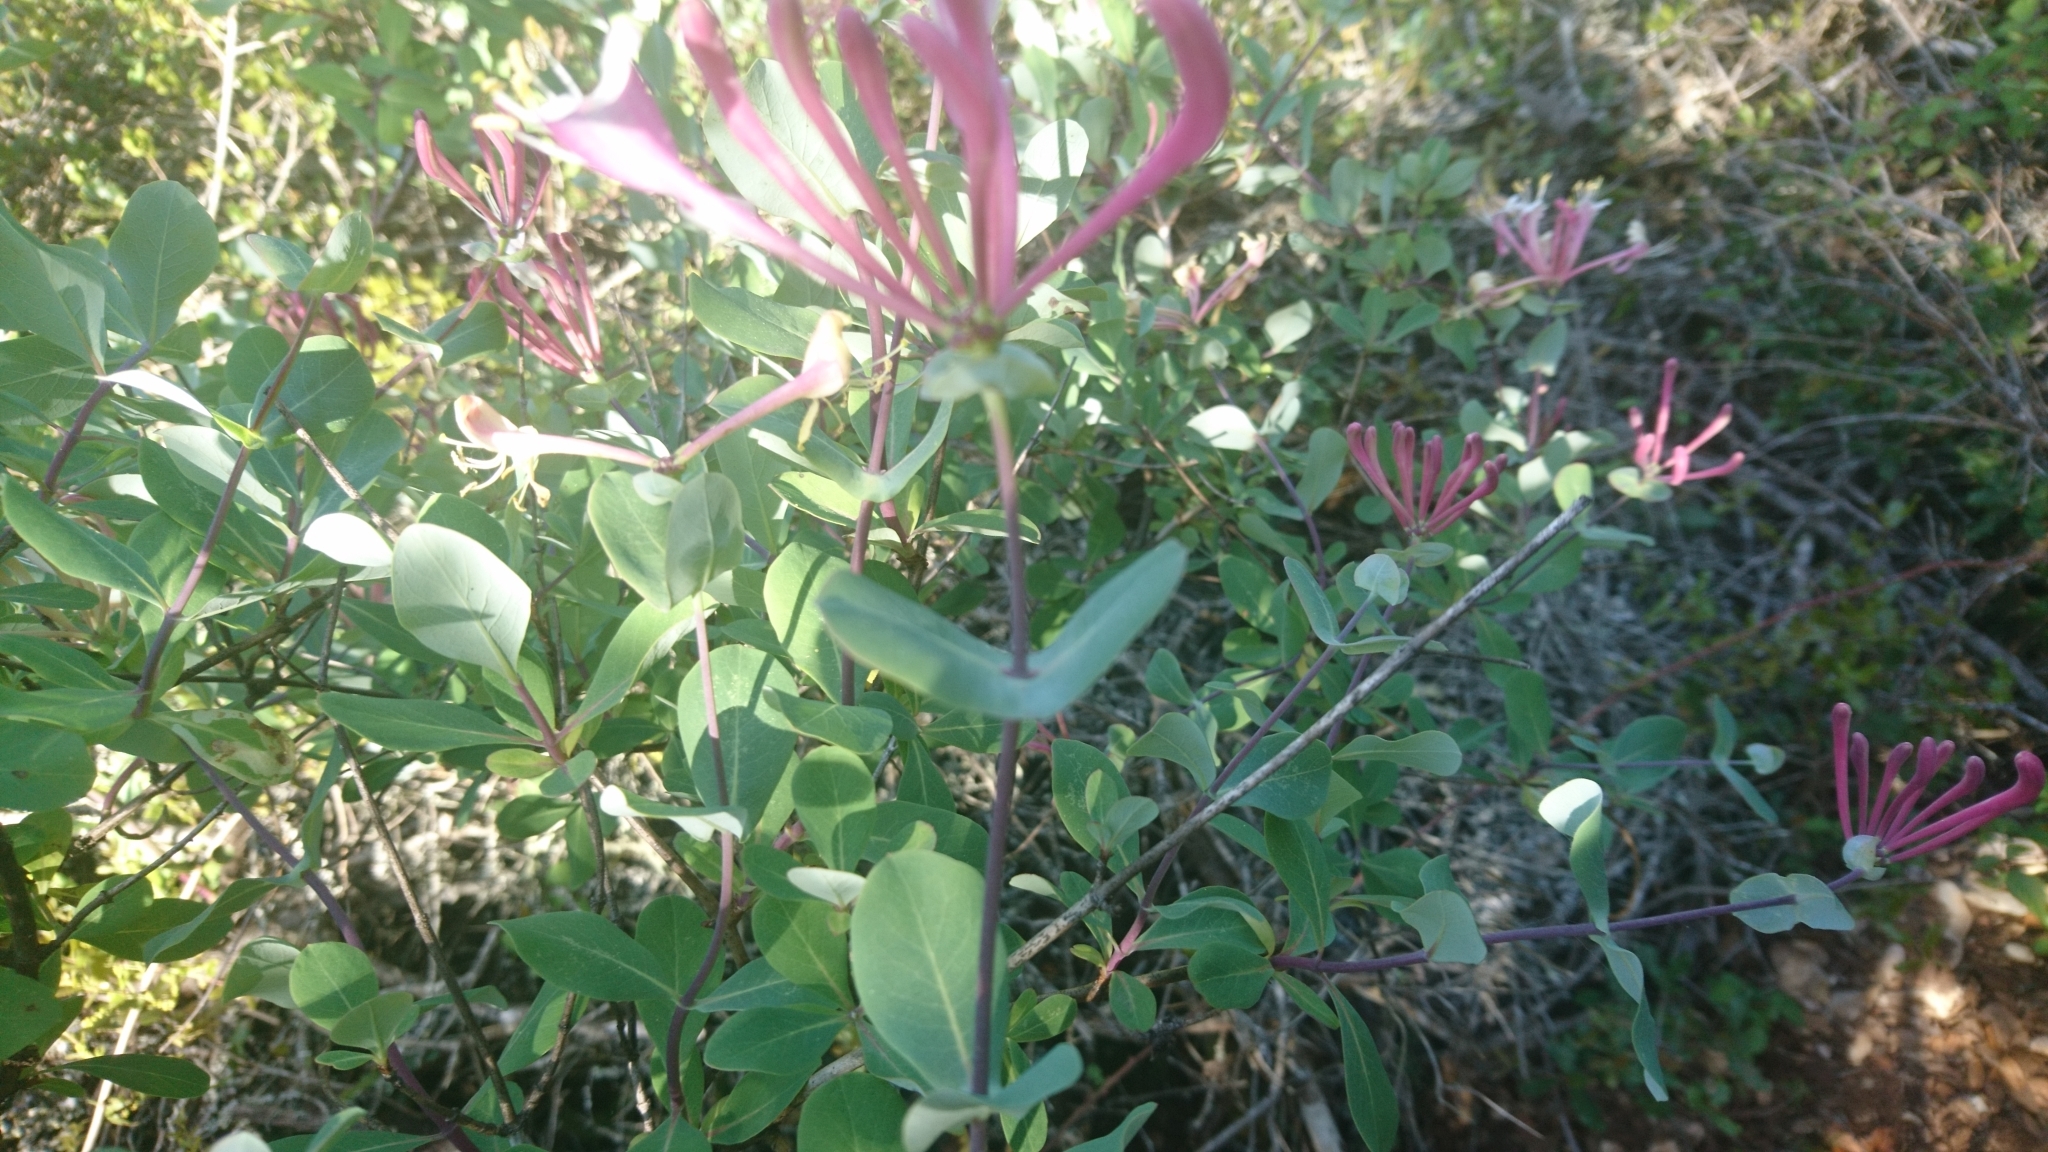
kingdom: Plantae
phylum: Tracheophyta
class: Magnoliopsida
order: Dipsacales
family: Caprifoliaceae
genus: Lonicera
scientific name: Lonicera implexa
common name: Minorca honeysuckle
